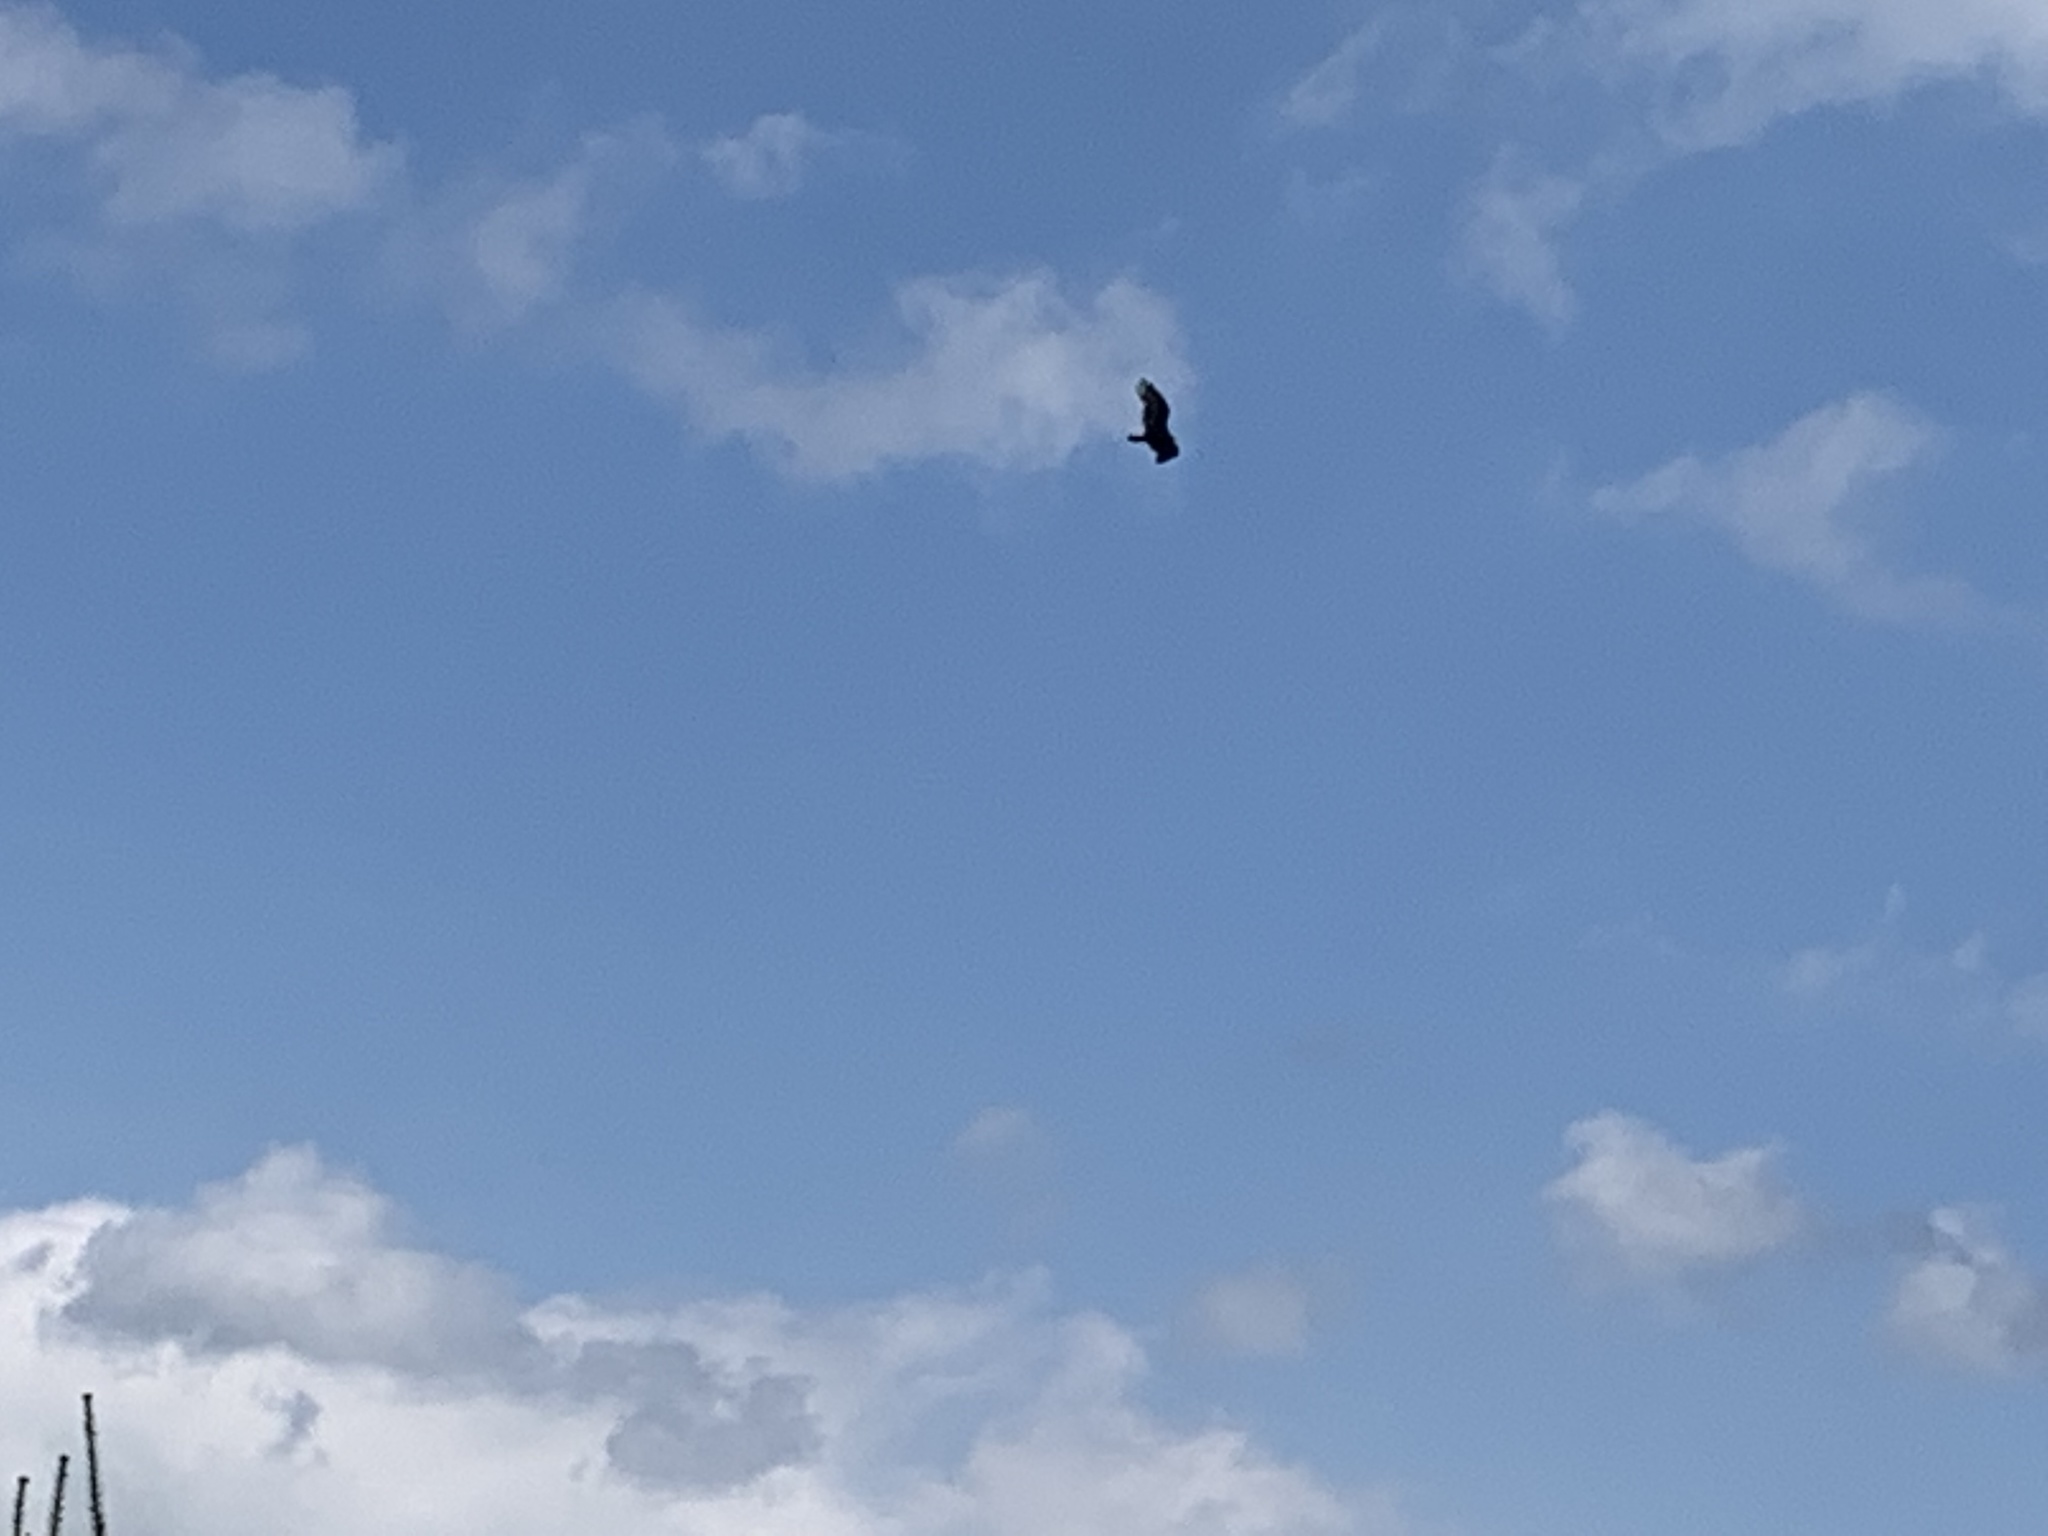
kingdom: Animalia
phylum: Chordata
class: Aves
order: Accipitriformes
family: Cathartidae
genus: Cathartes
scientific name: Cathartes aura
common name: Turkey vulture
